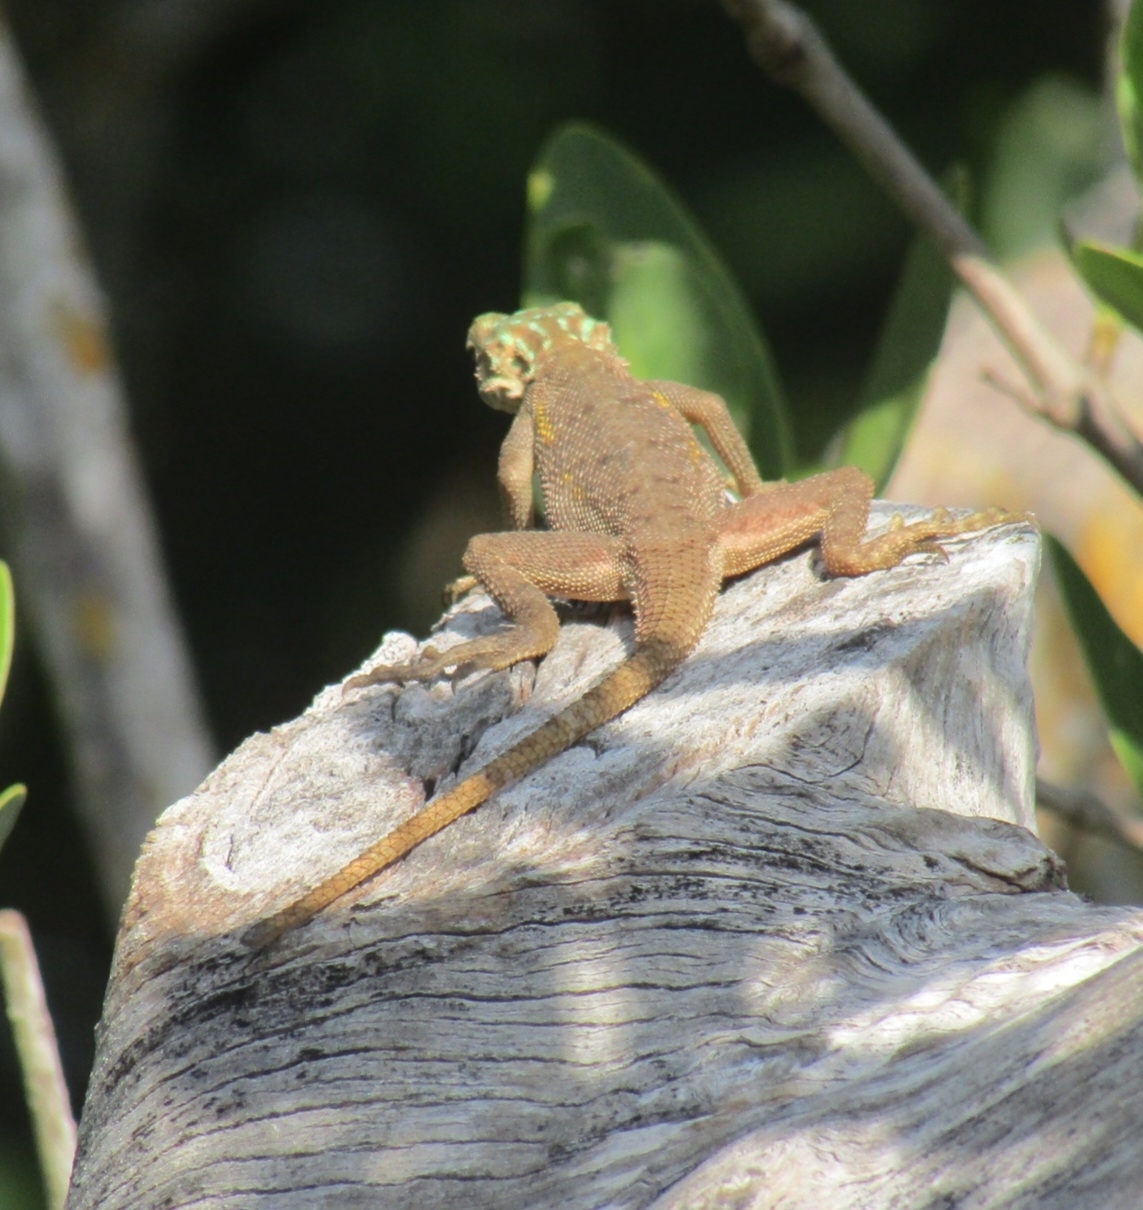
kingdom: Animalia
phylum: Chordata
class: Squamata
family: Agamidae
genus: Agama
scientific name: Agama picticauda
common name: Red-headed agama
